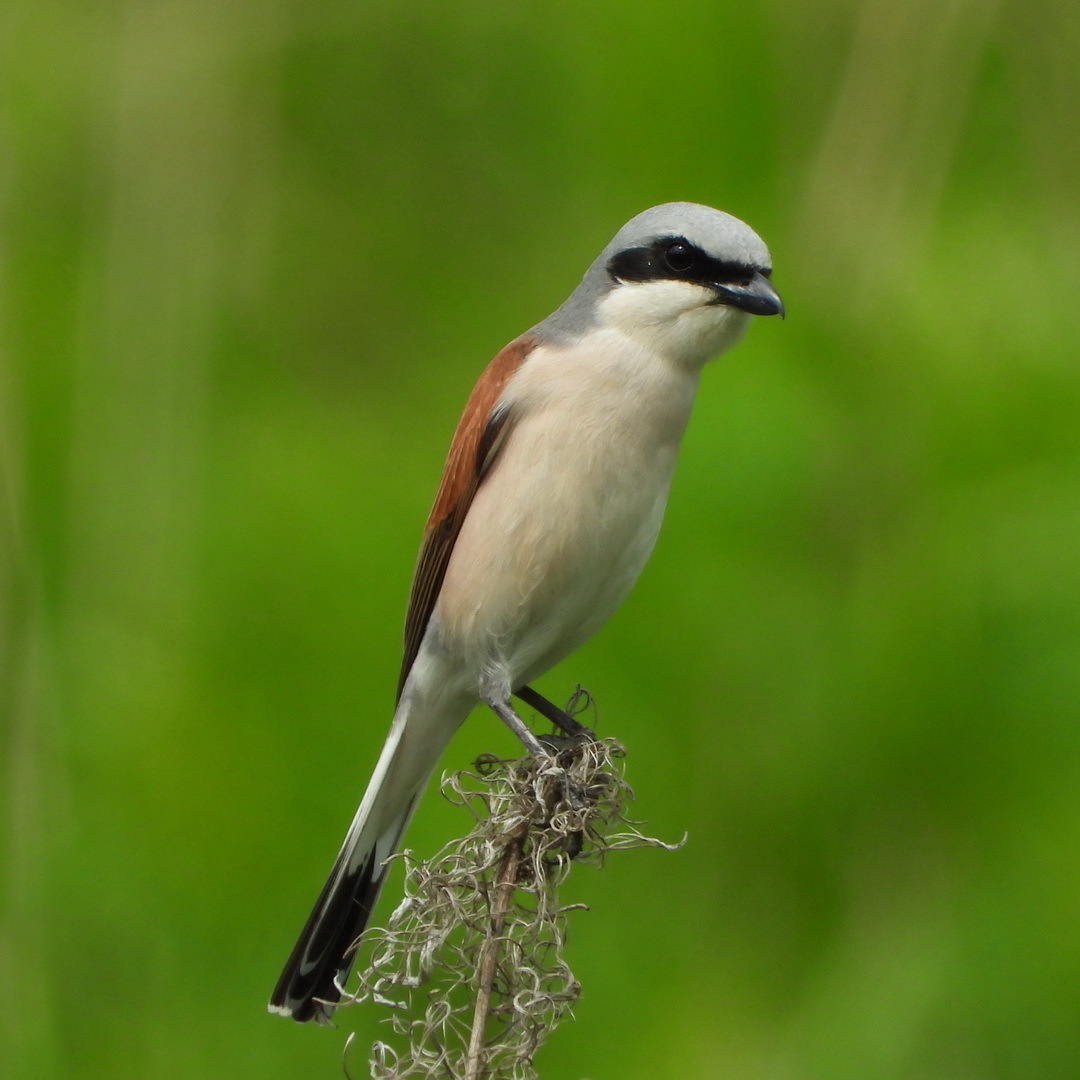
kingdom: Animalia
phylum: Chordata
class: Aves
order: Passeriformes
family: Laniidae
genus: Lanius
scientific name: Lanius collurio
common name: Red-backed shrike
